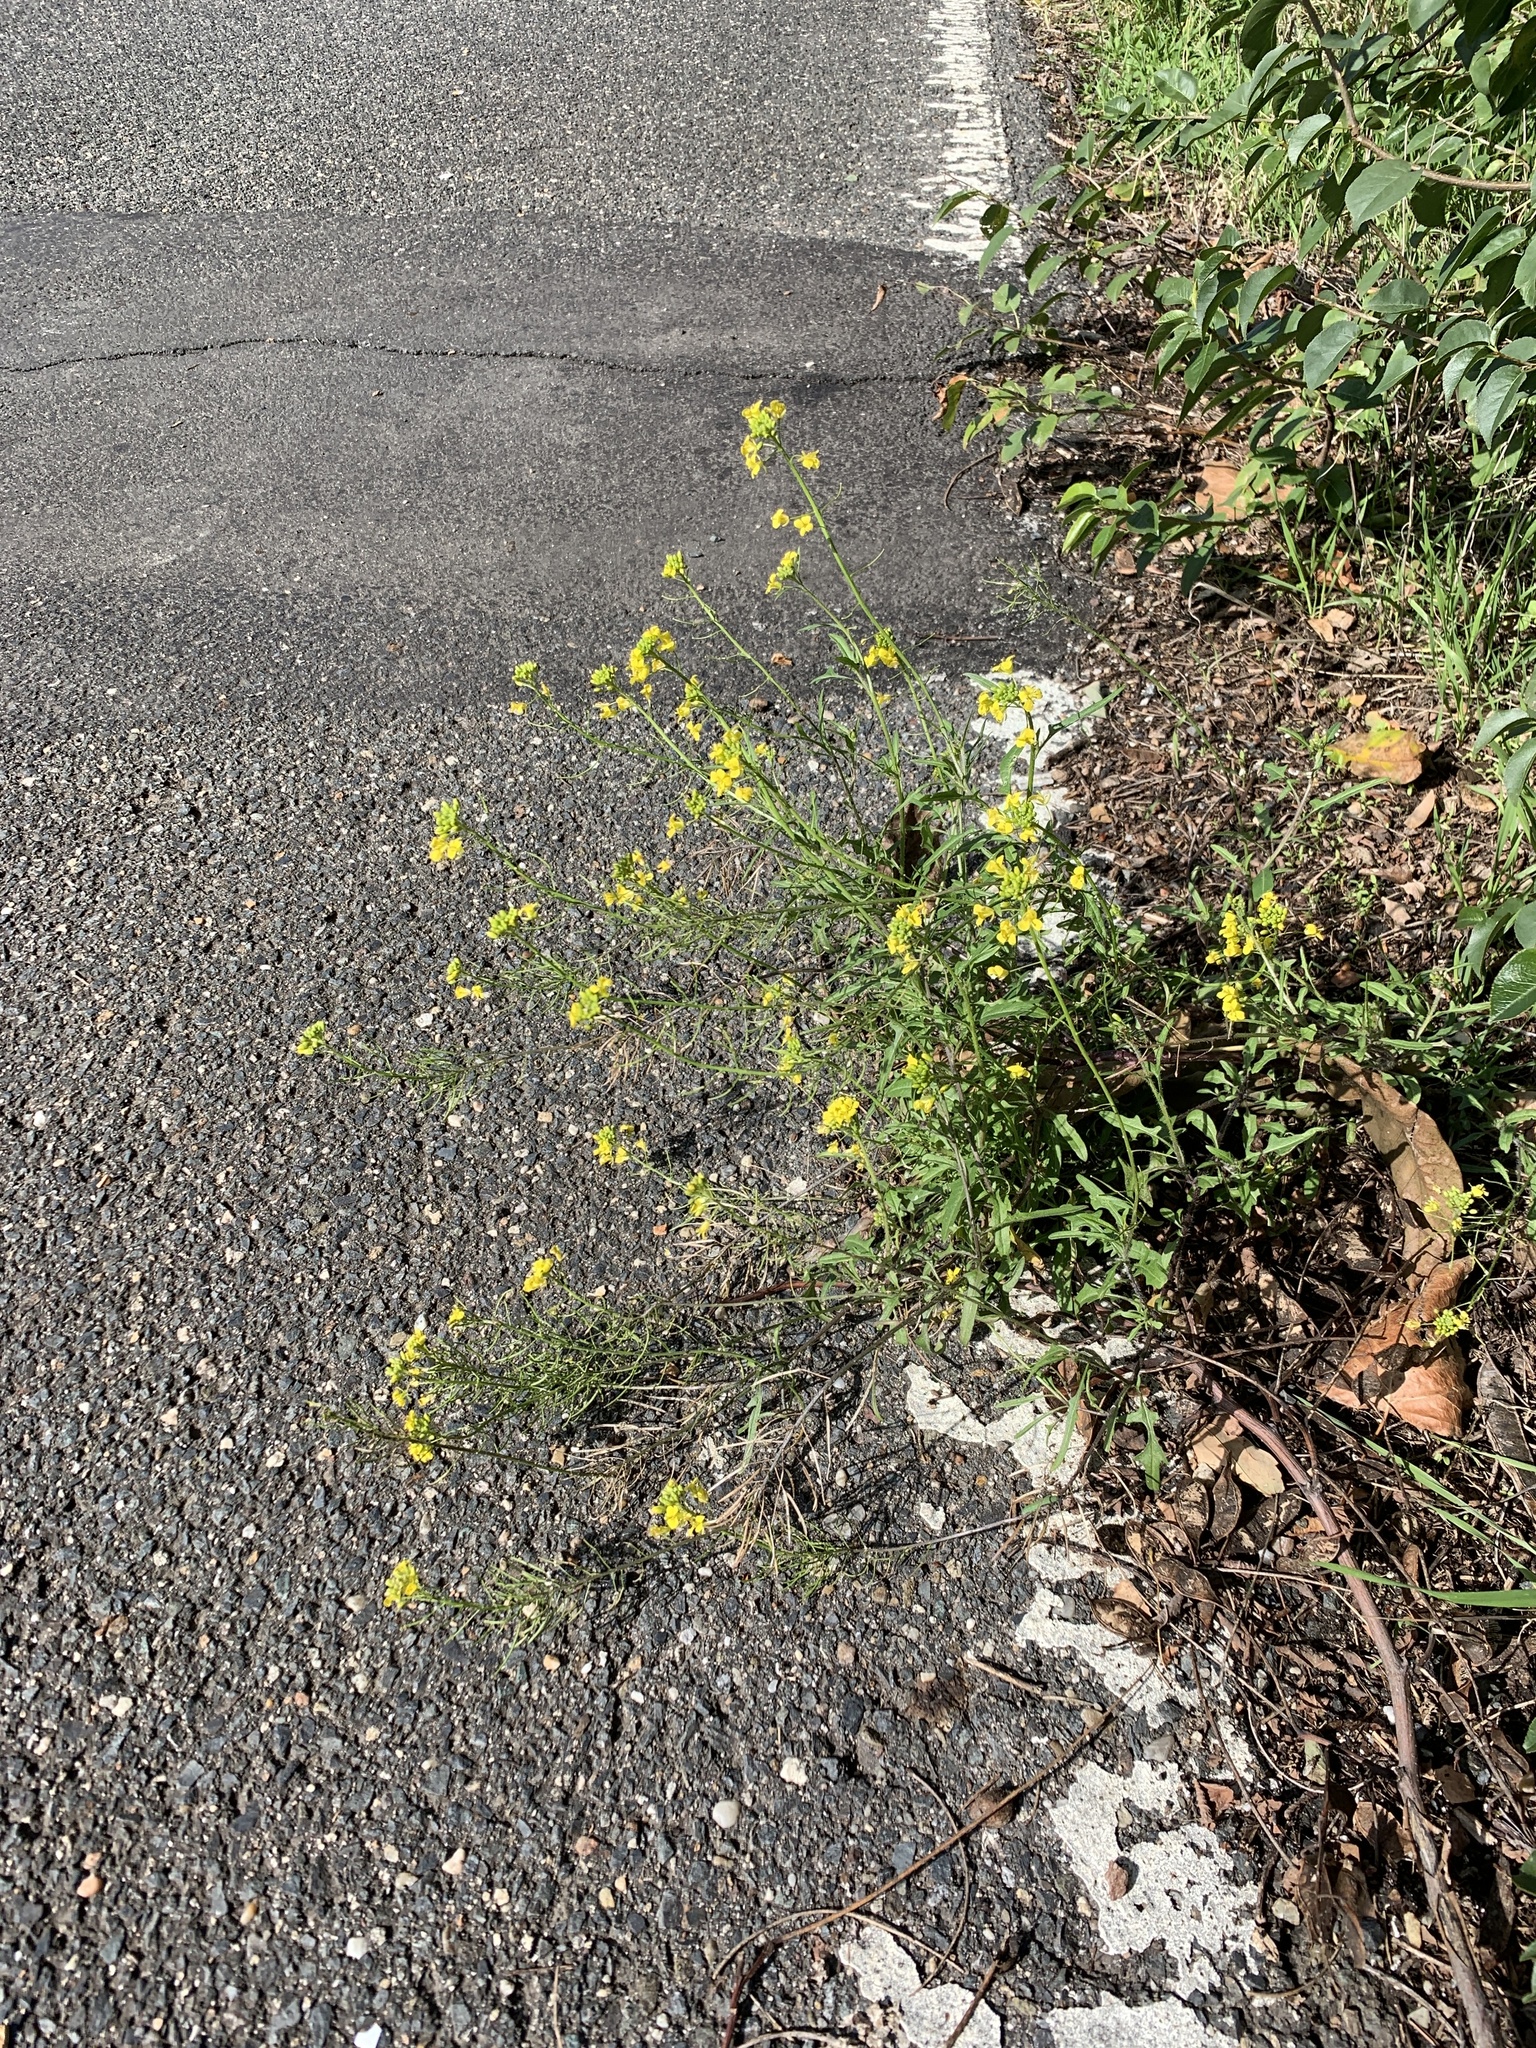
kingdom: Plantae
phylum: Tracheophyta
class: Magnoliopsida
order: Brassicales
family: Brassicaceae
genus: Sisymbrium
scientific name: Sisymbrium loeselii
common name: False london-rocket
